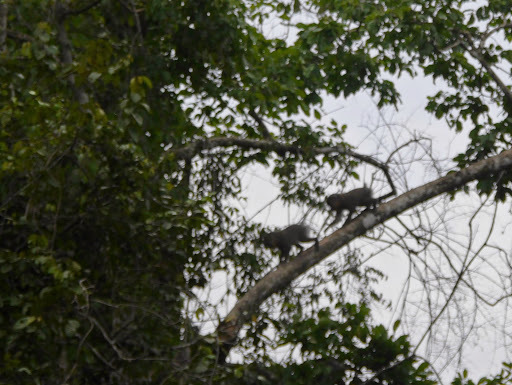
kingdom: Animalia
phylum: Chordata
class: Mammalia
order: Primates
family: Cercopithecidae
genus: Mandrillus
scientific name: Mandrillus sphinx
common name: Mandrill
